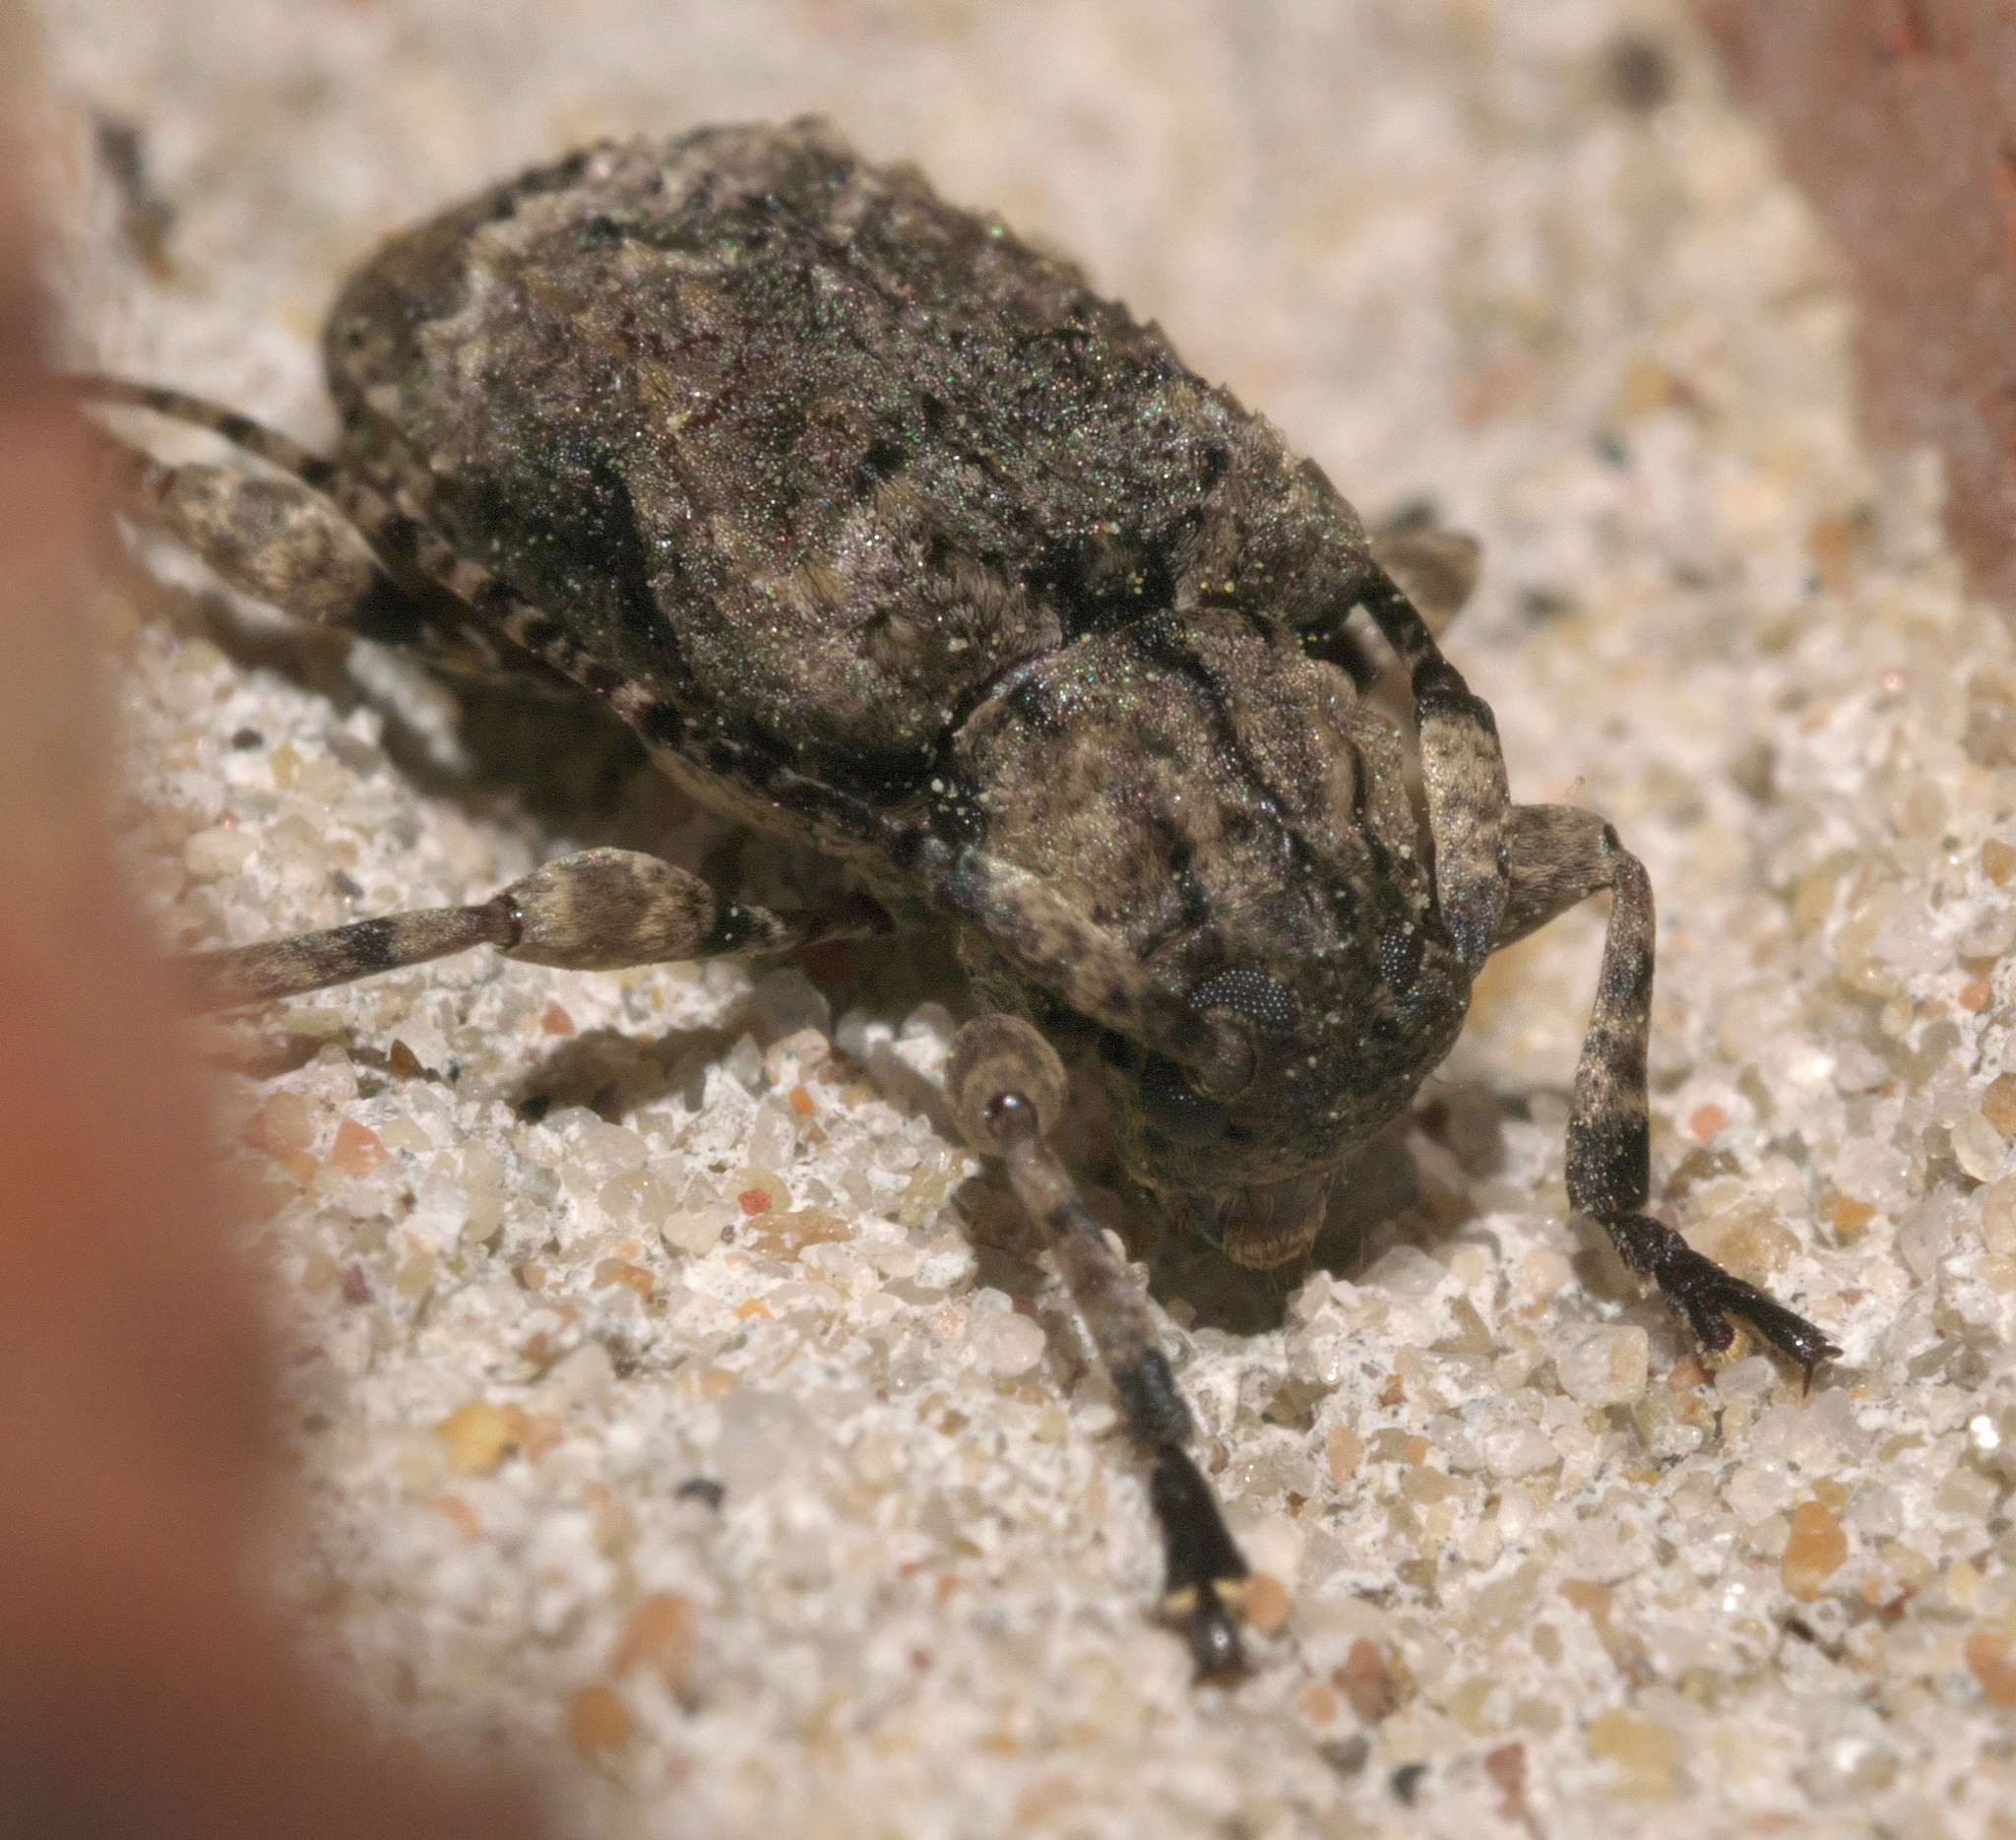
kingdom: Animalia
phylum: Arthropoda
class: Insecta
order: Coleoptera
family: Cerambycidae
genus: Leptostylus
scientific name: Leptostylus transversus
